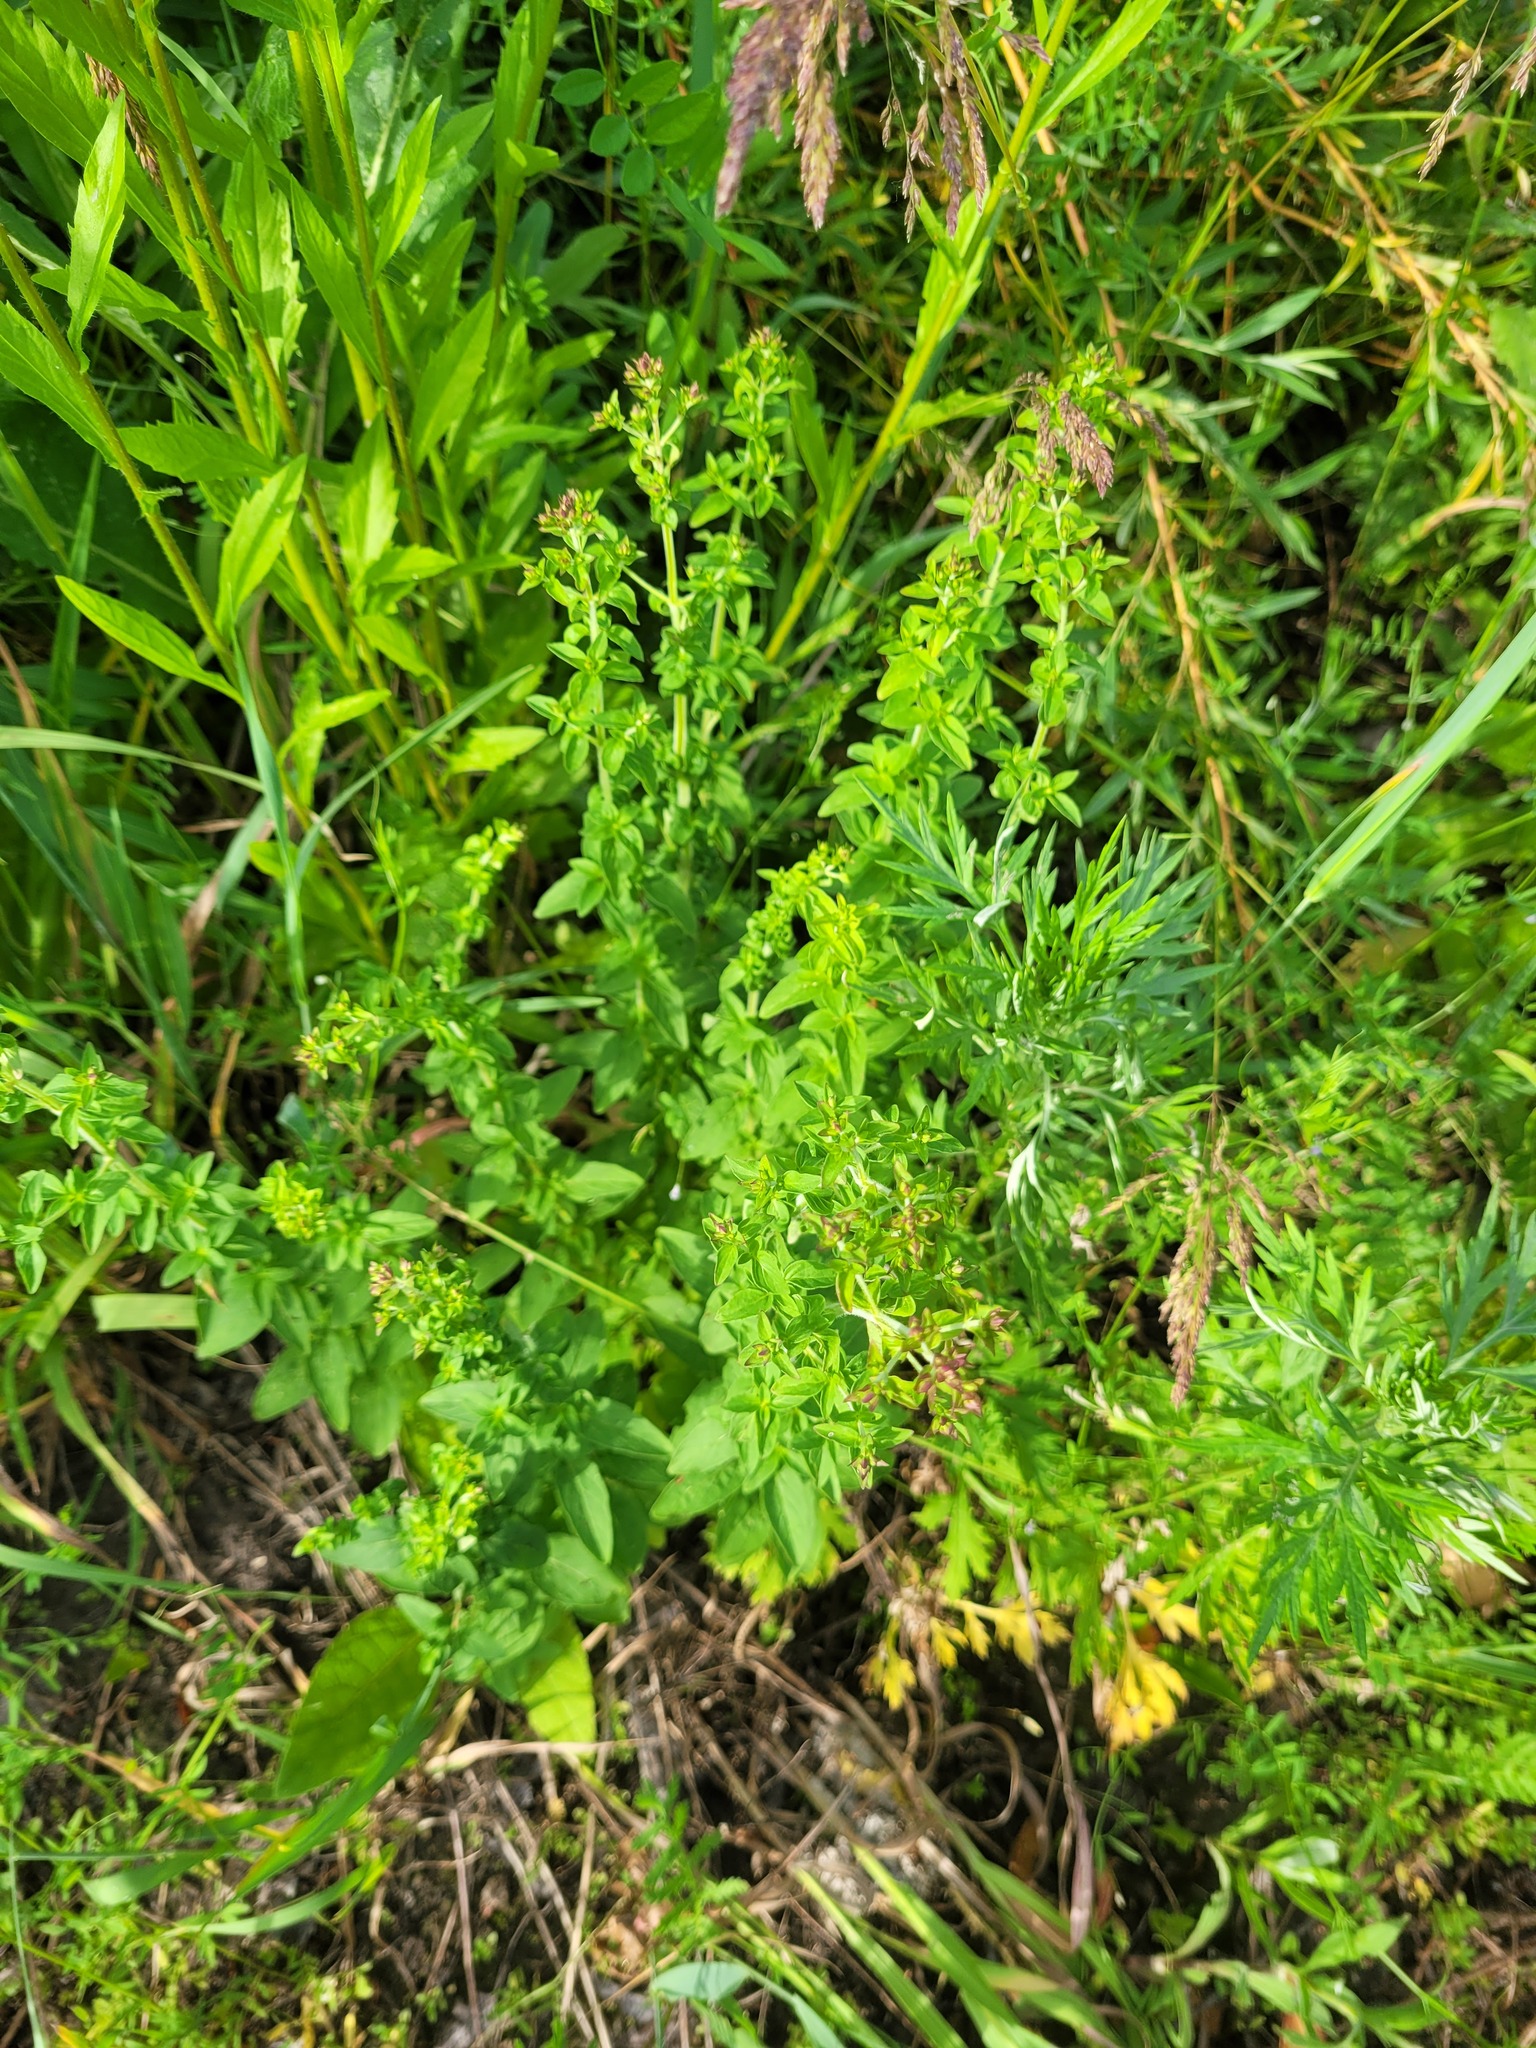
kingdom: Plantae
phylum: Tracheophyta
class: Magnoliopsida
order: Lamiales
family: Lamiaceae
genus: Origanum
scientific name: Origanum vulgare
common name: Wild marjoram
